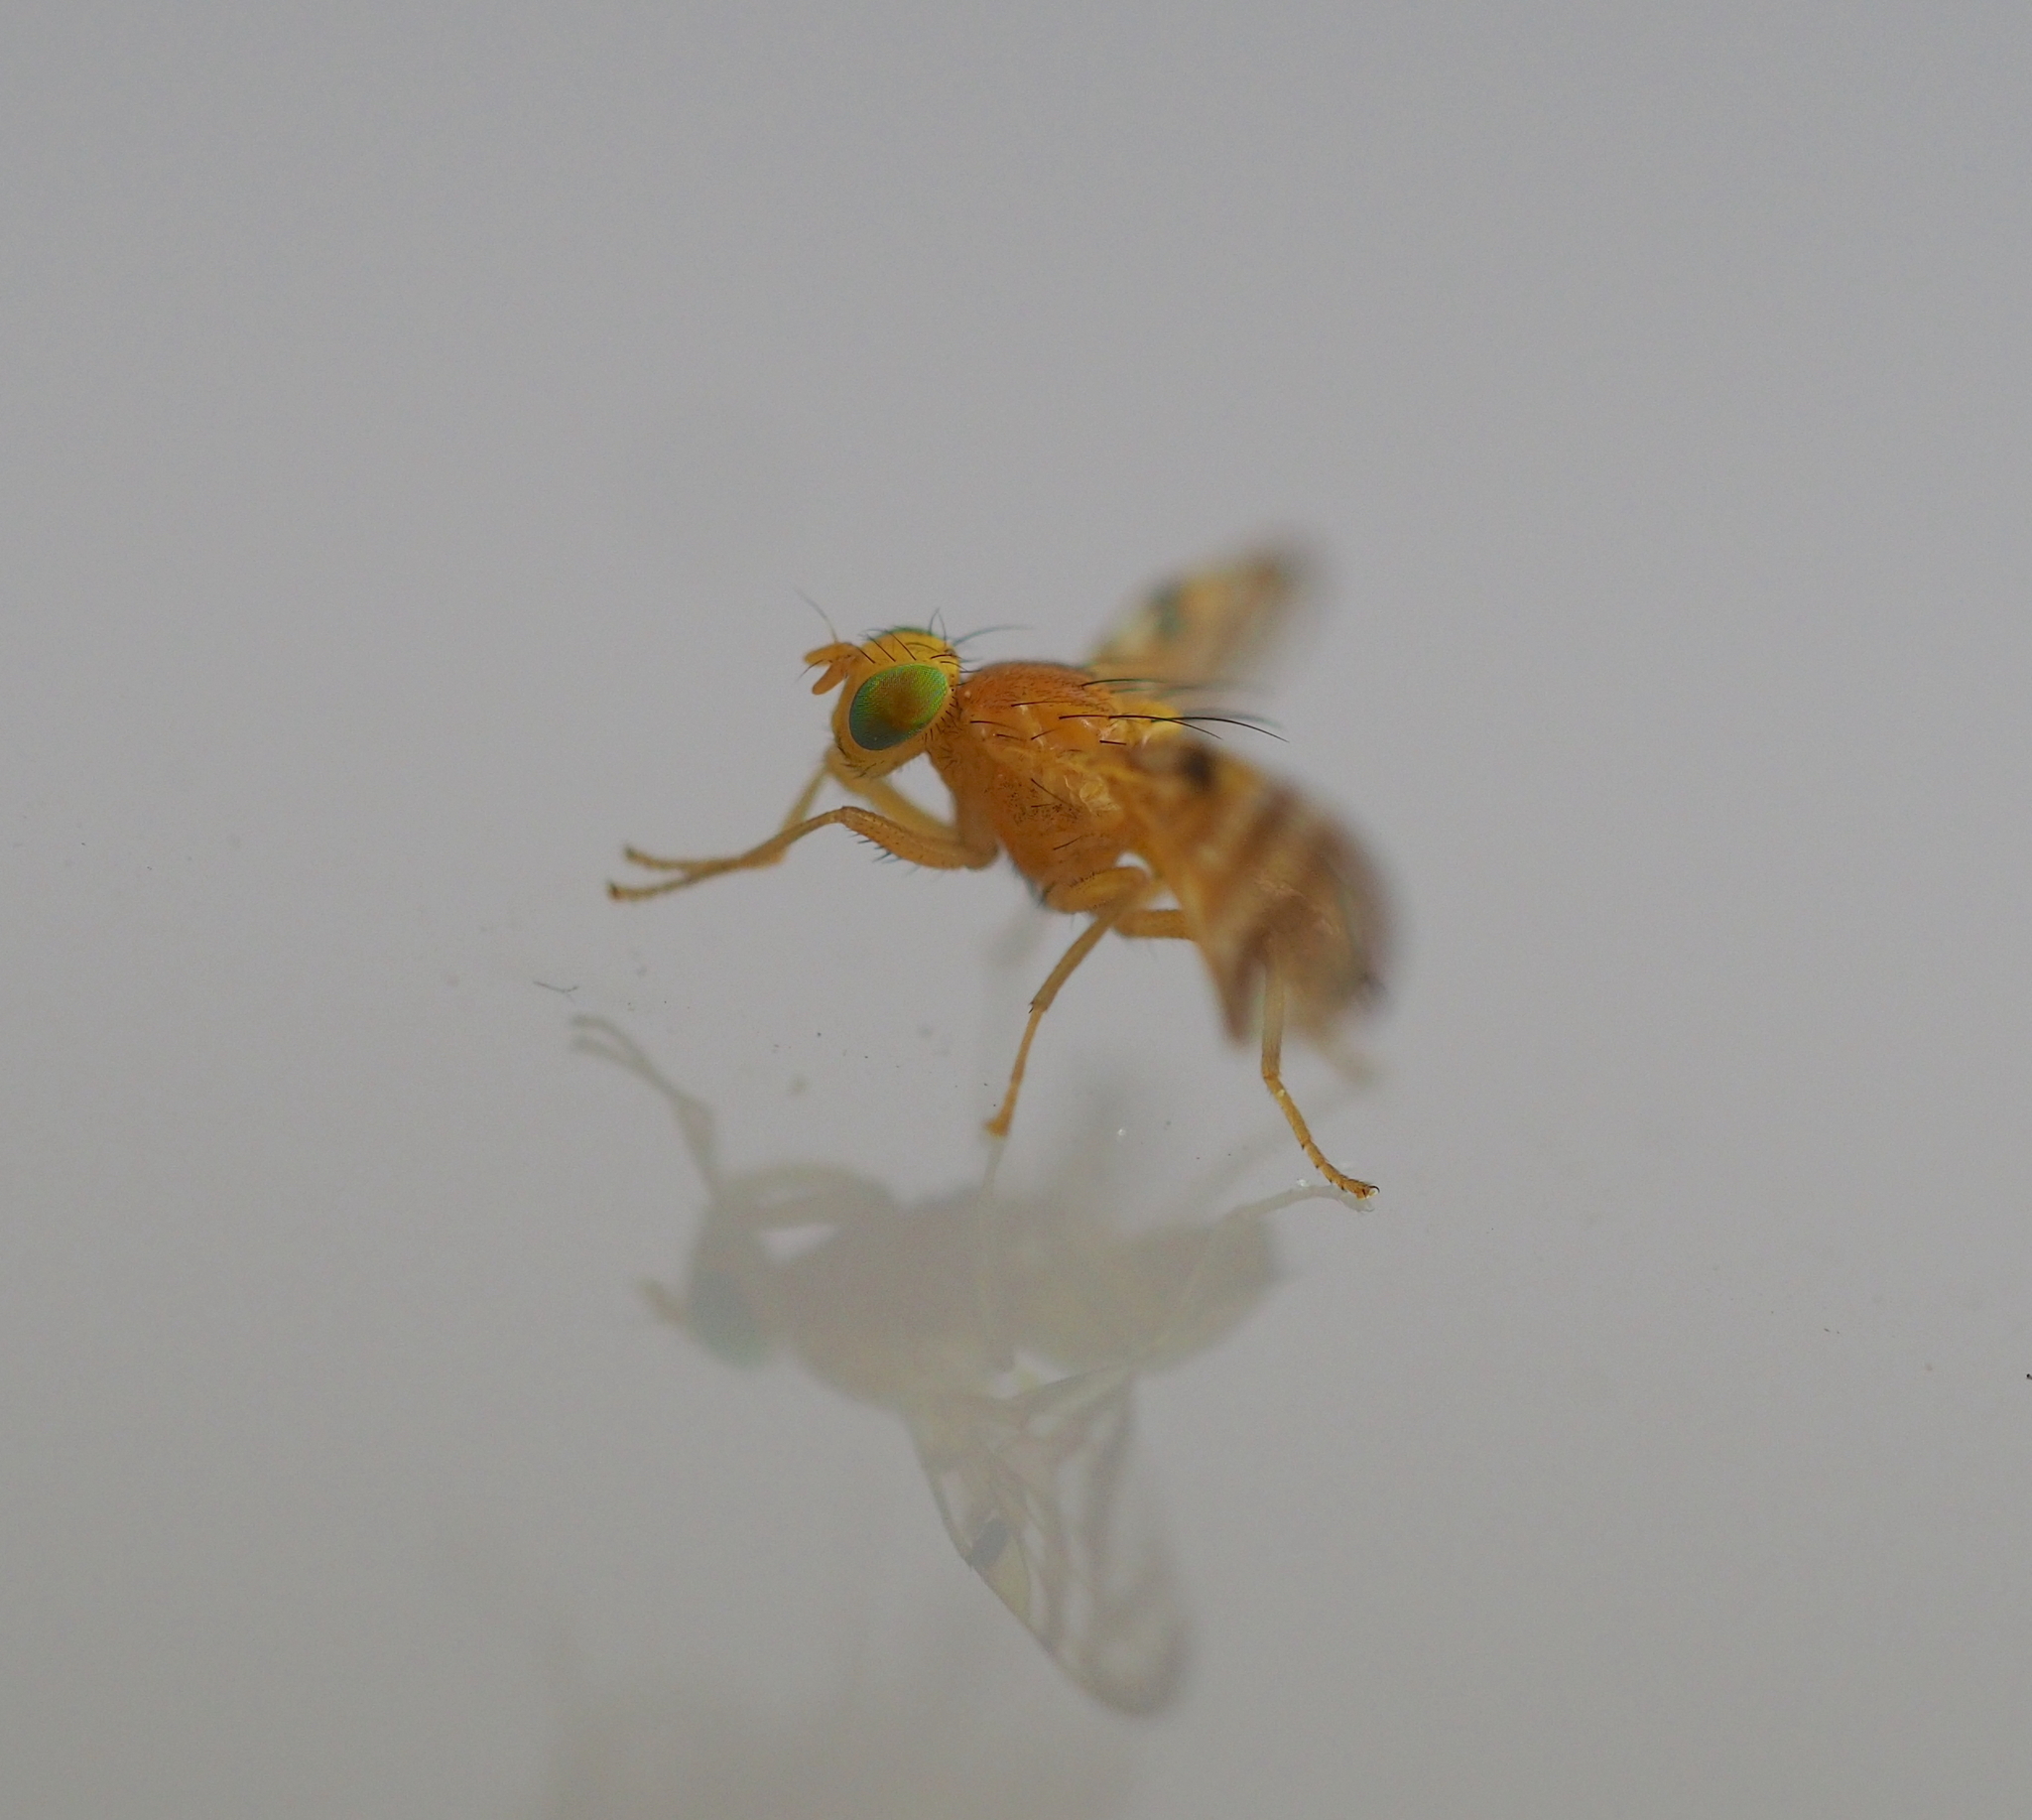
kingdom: Animalia
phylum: Arthropoda
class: Insecta
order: Diptera
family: Tephritidae
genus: Acidia
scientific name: Acidia cognata
